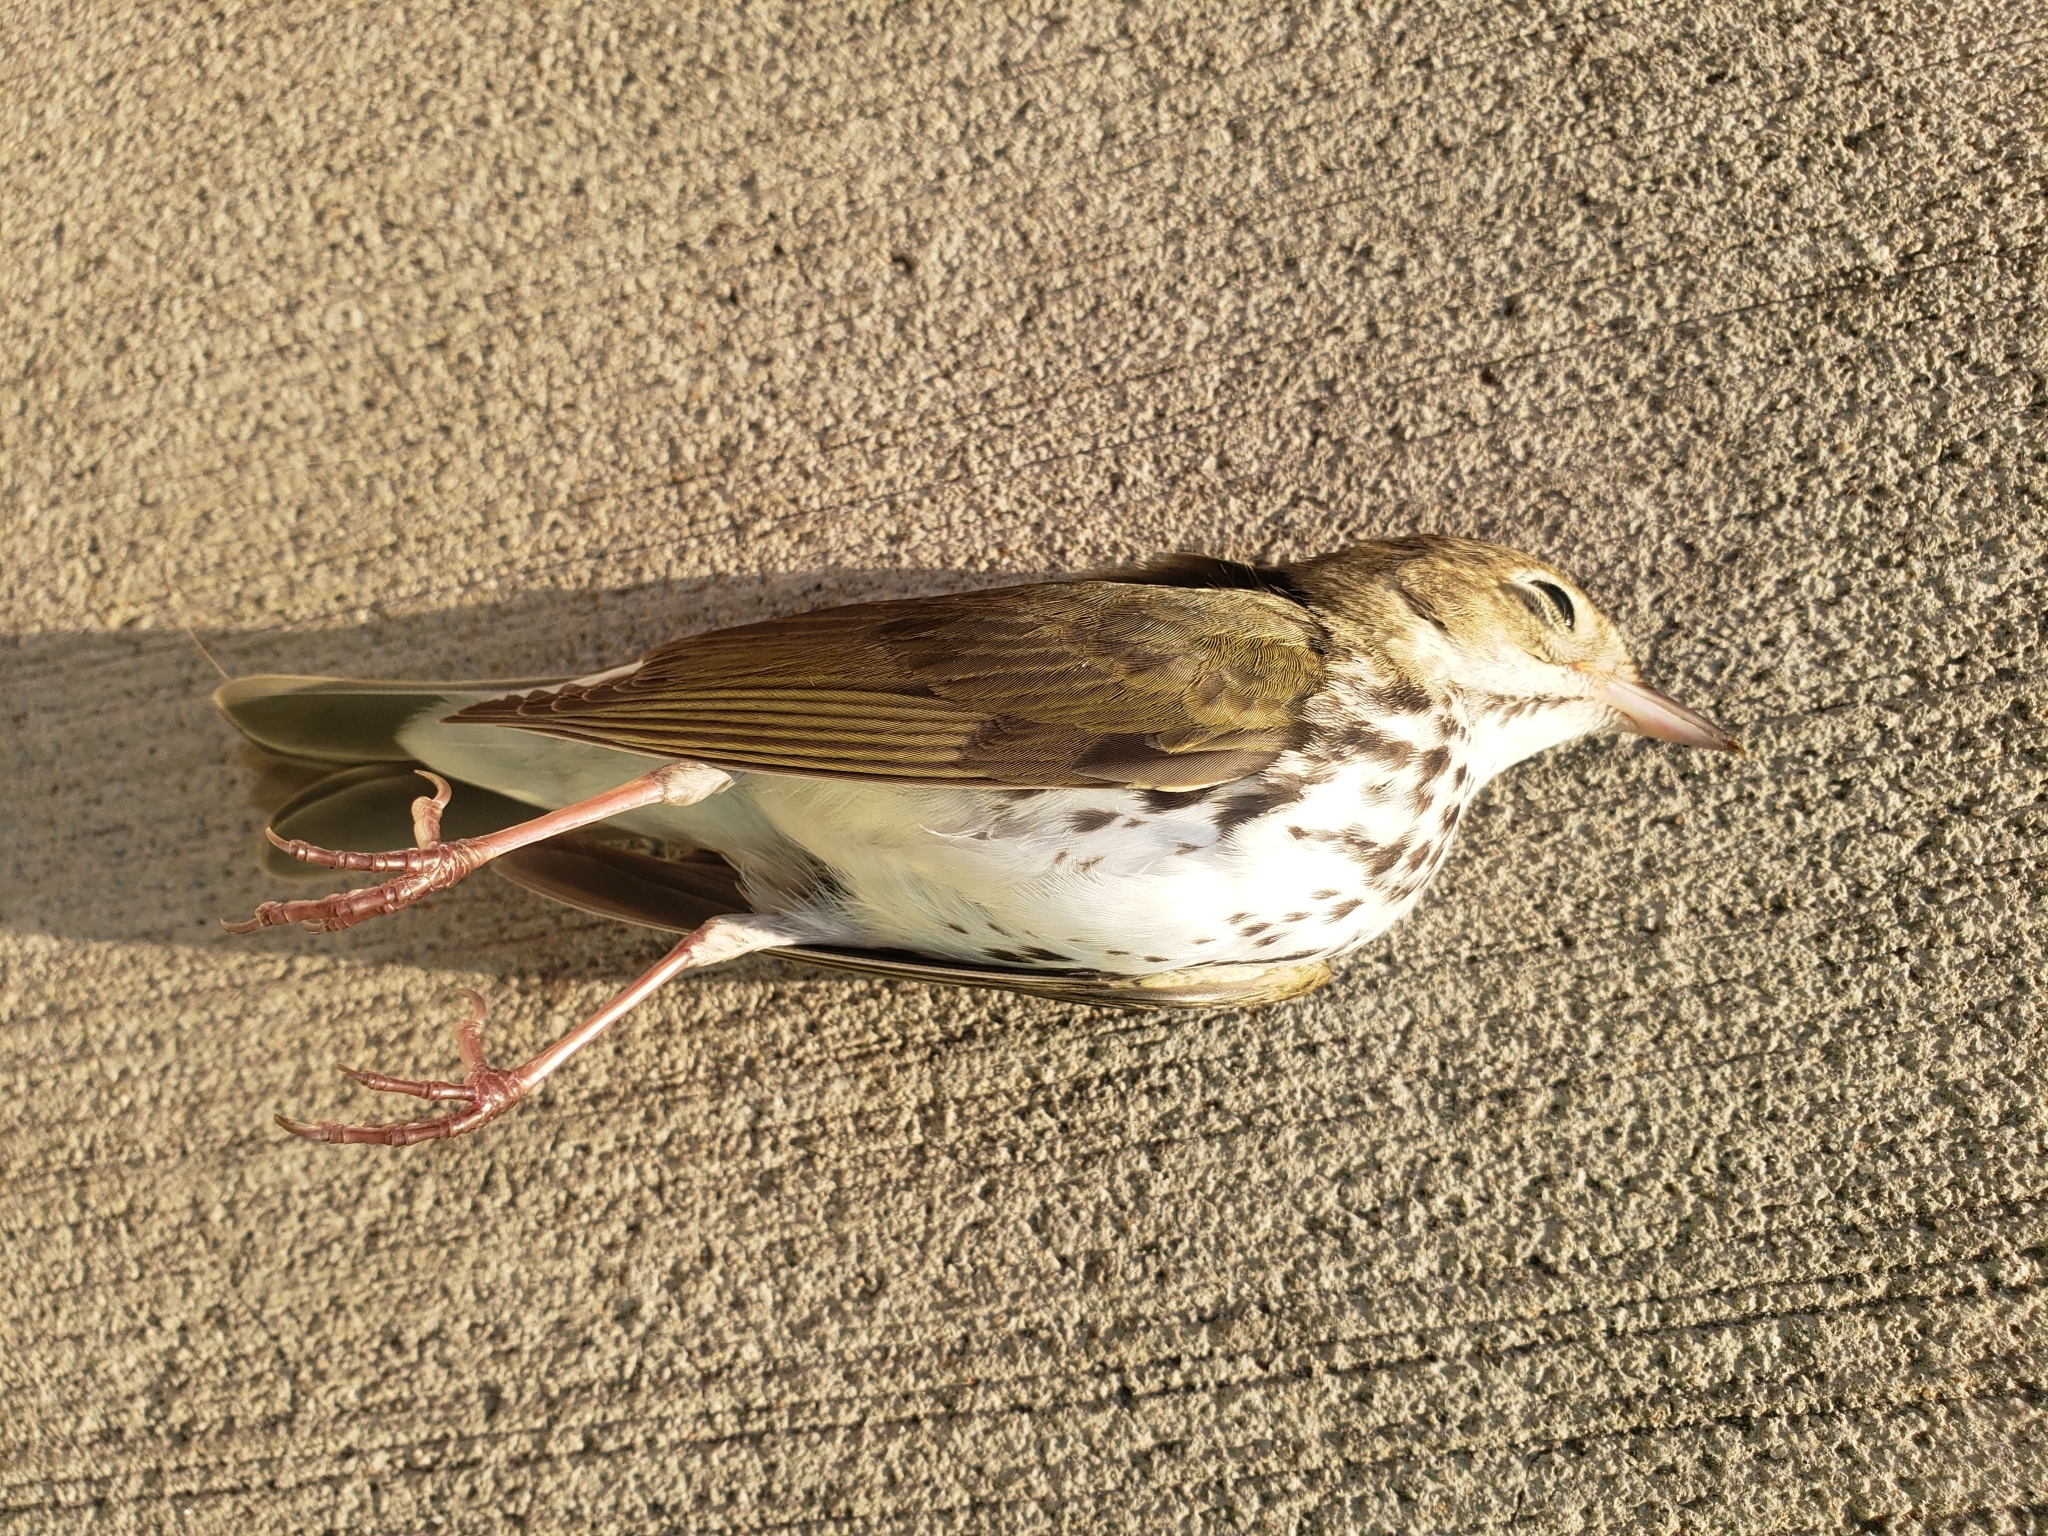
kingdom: Animalia
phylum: Chordata
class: Aves
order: Passeriformes
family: Parulidae
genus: Seiurus
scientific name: Seiurus aurocapilla
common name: Ovenbird
